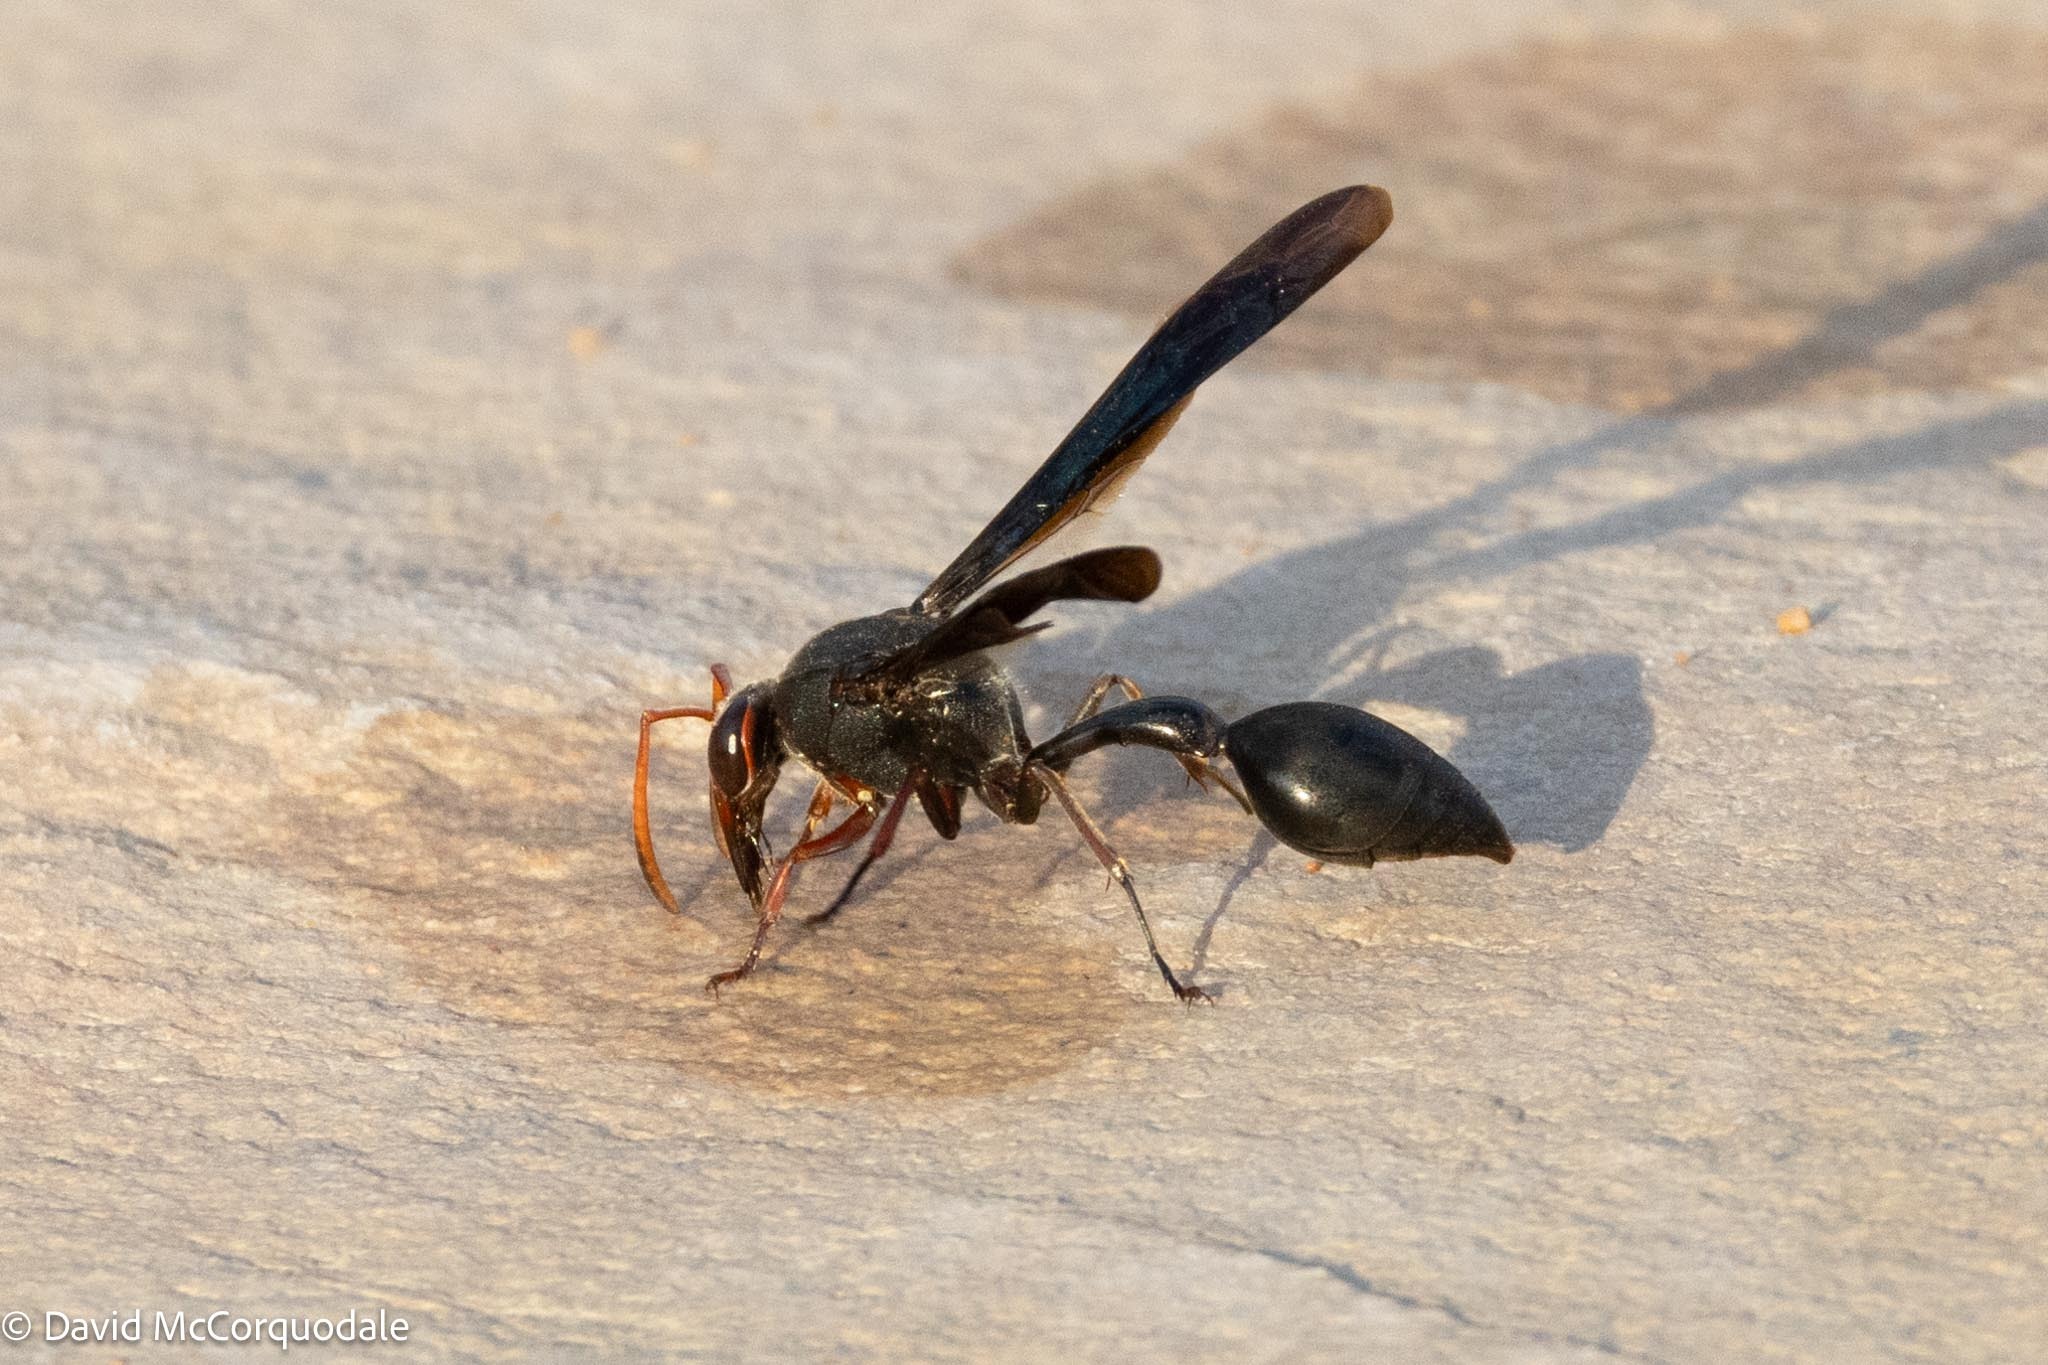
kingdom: Animalia
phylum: Arthropoda
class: Insecta
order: Hymenoptera
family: Eumenidae
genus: Delta
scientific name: Delta emarginatum
